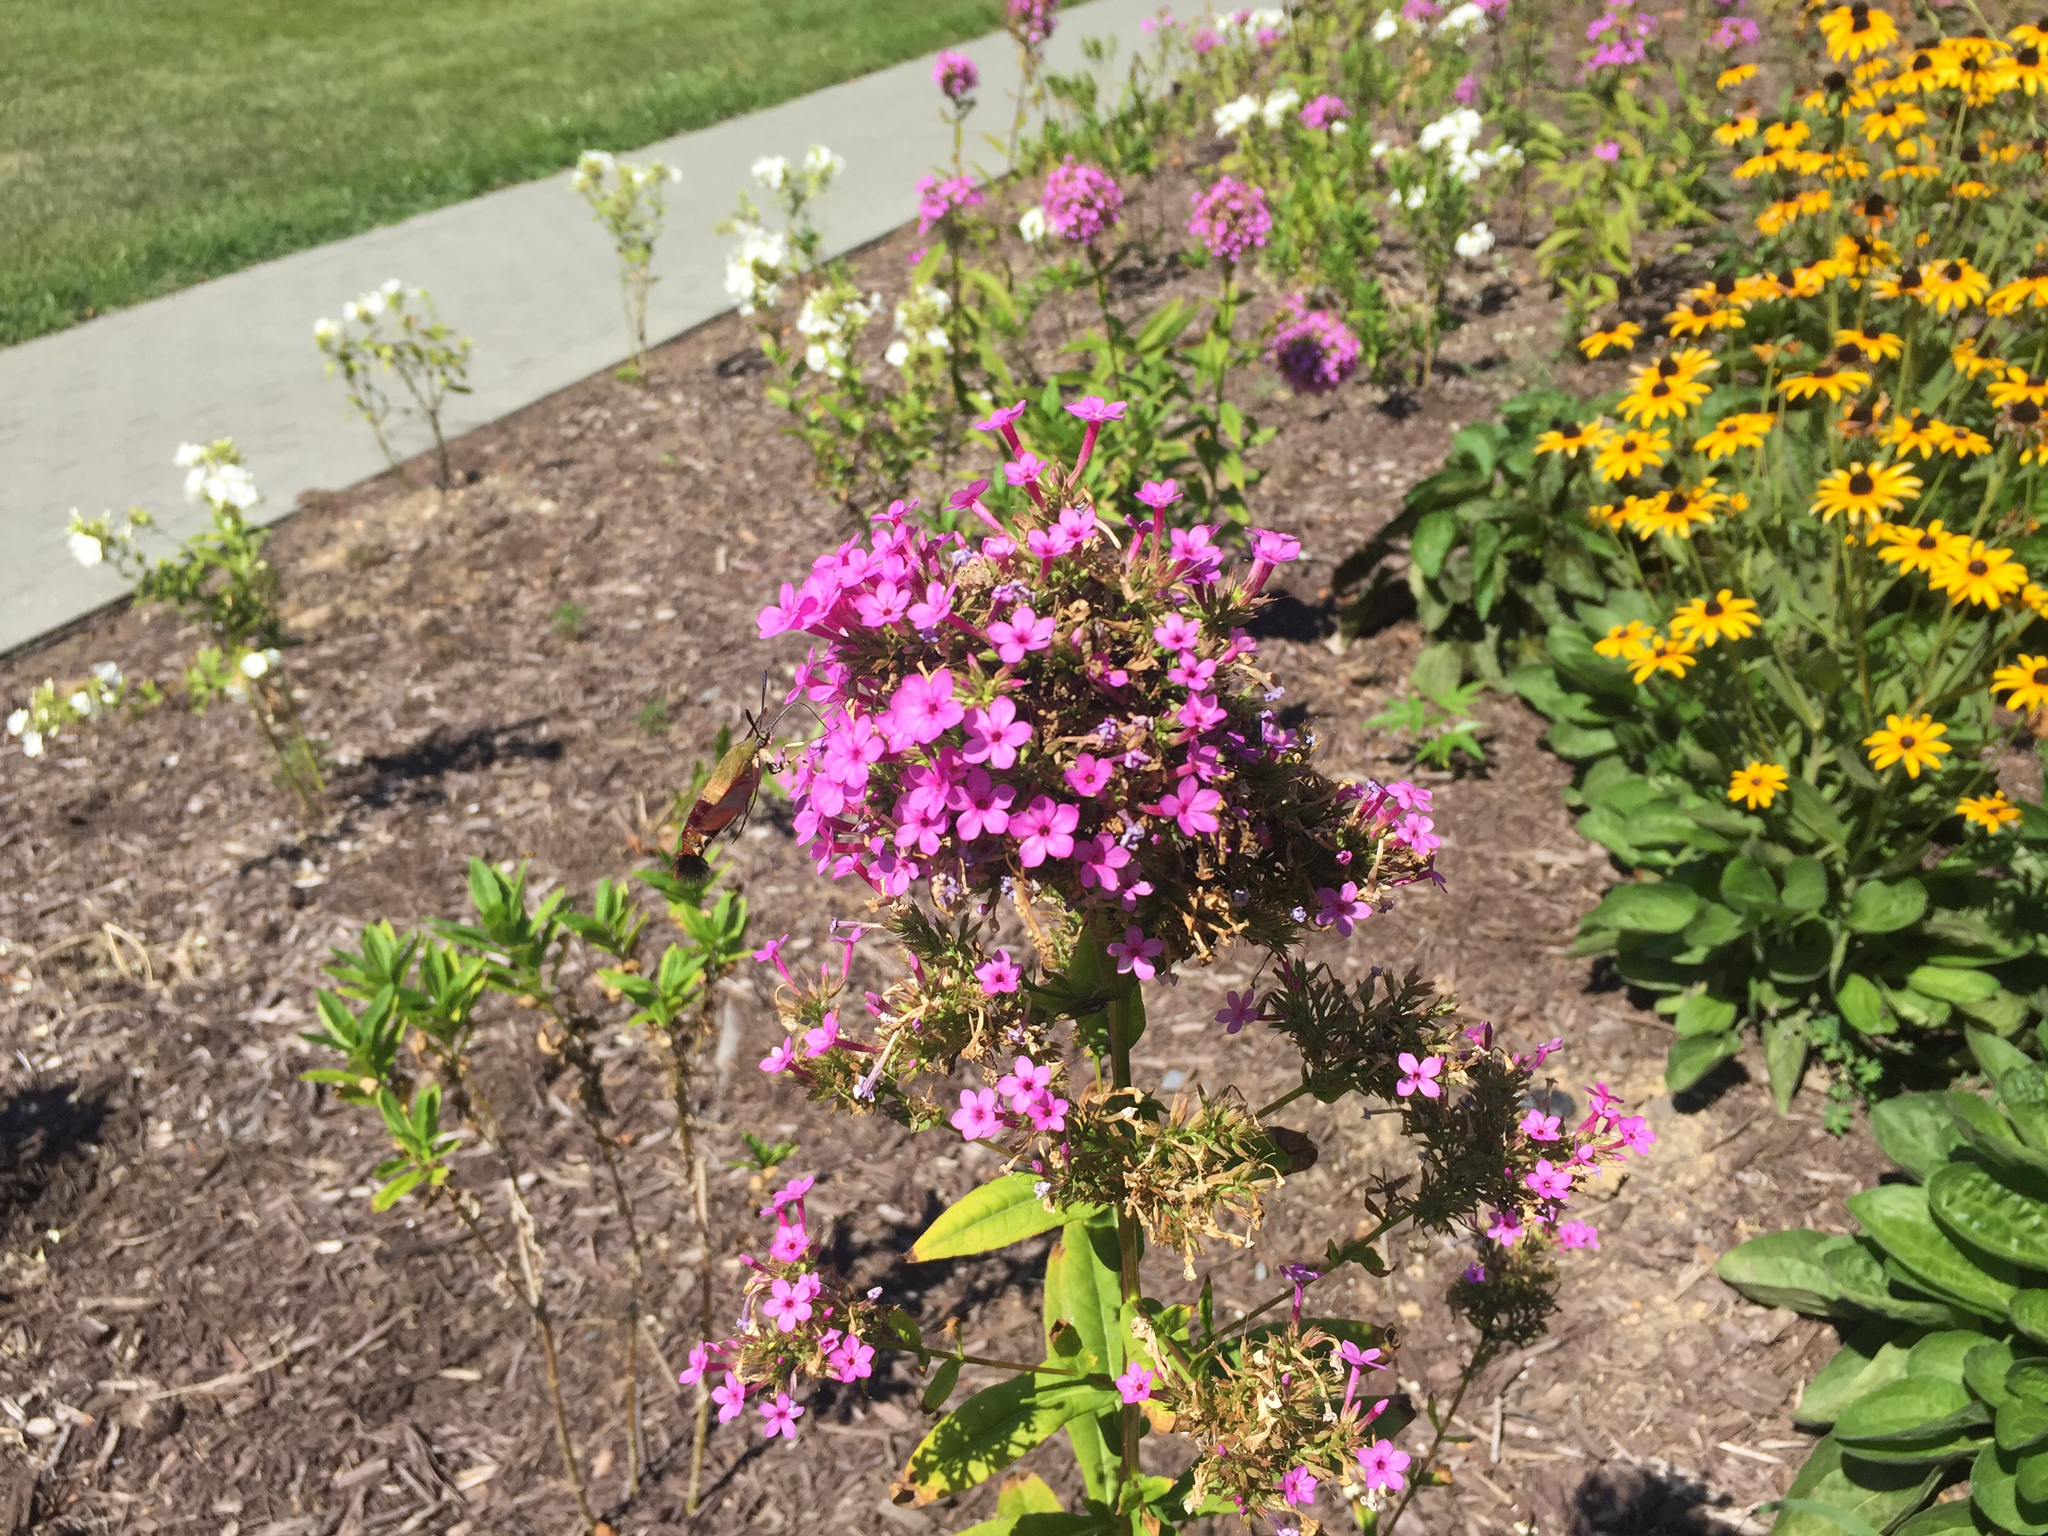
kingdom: Animalia
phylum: Arthropoda
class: Insecta
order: Lepidoptera
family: Sphingidae
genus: Hemaris
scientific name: Hemaris thysbe
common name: Common clear-wing
